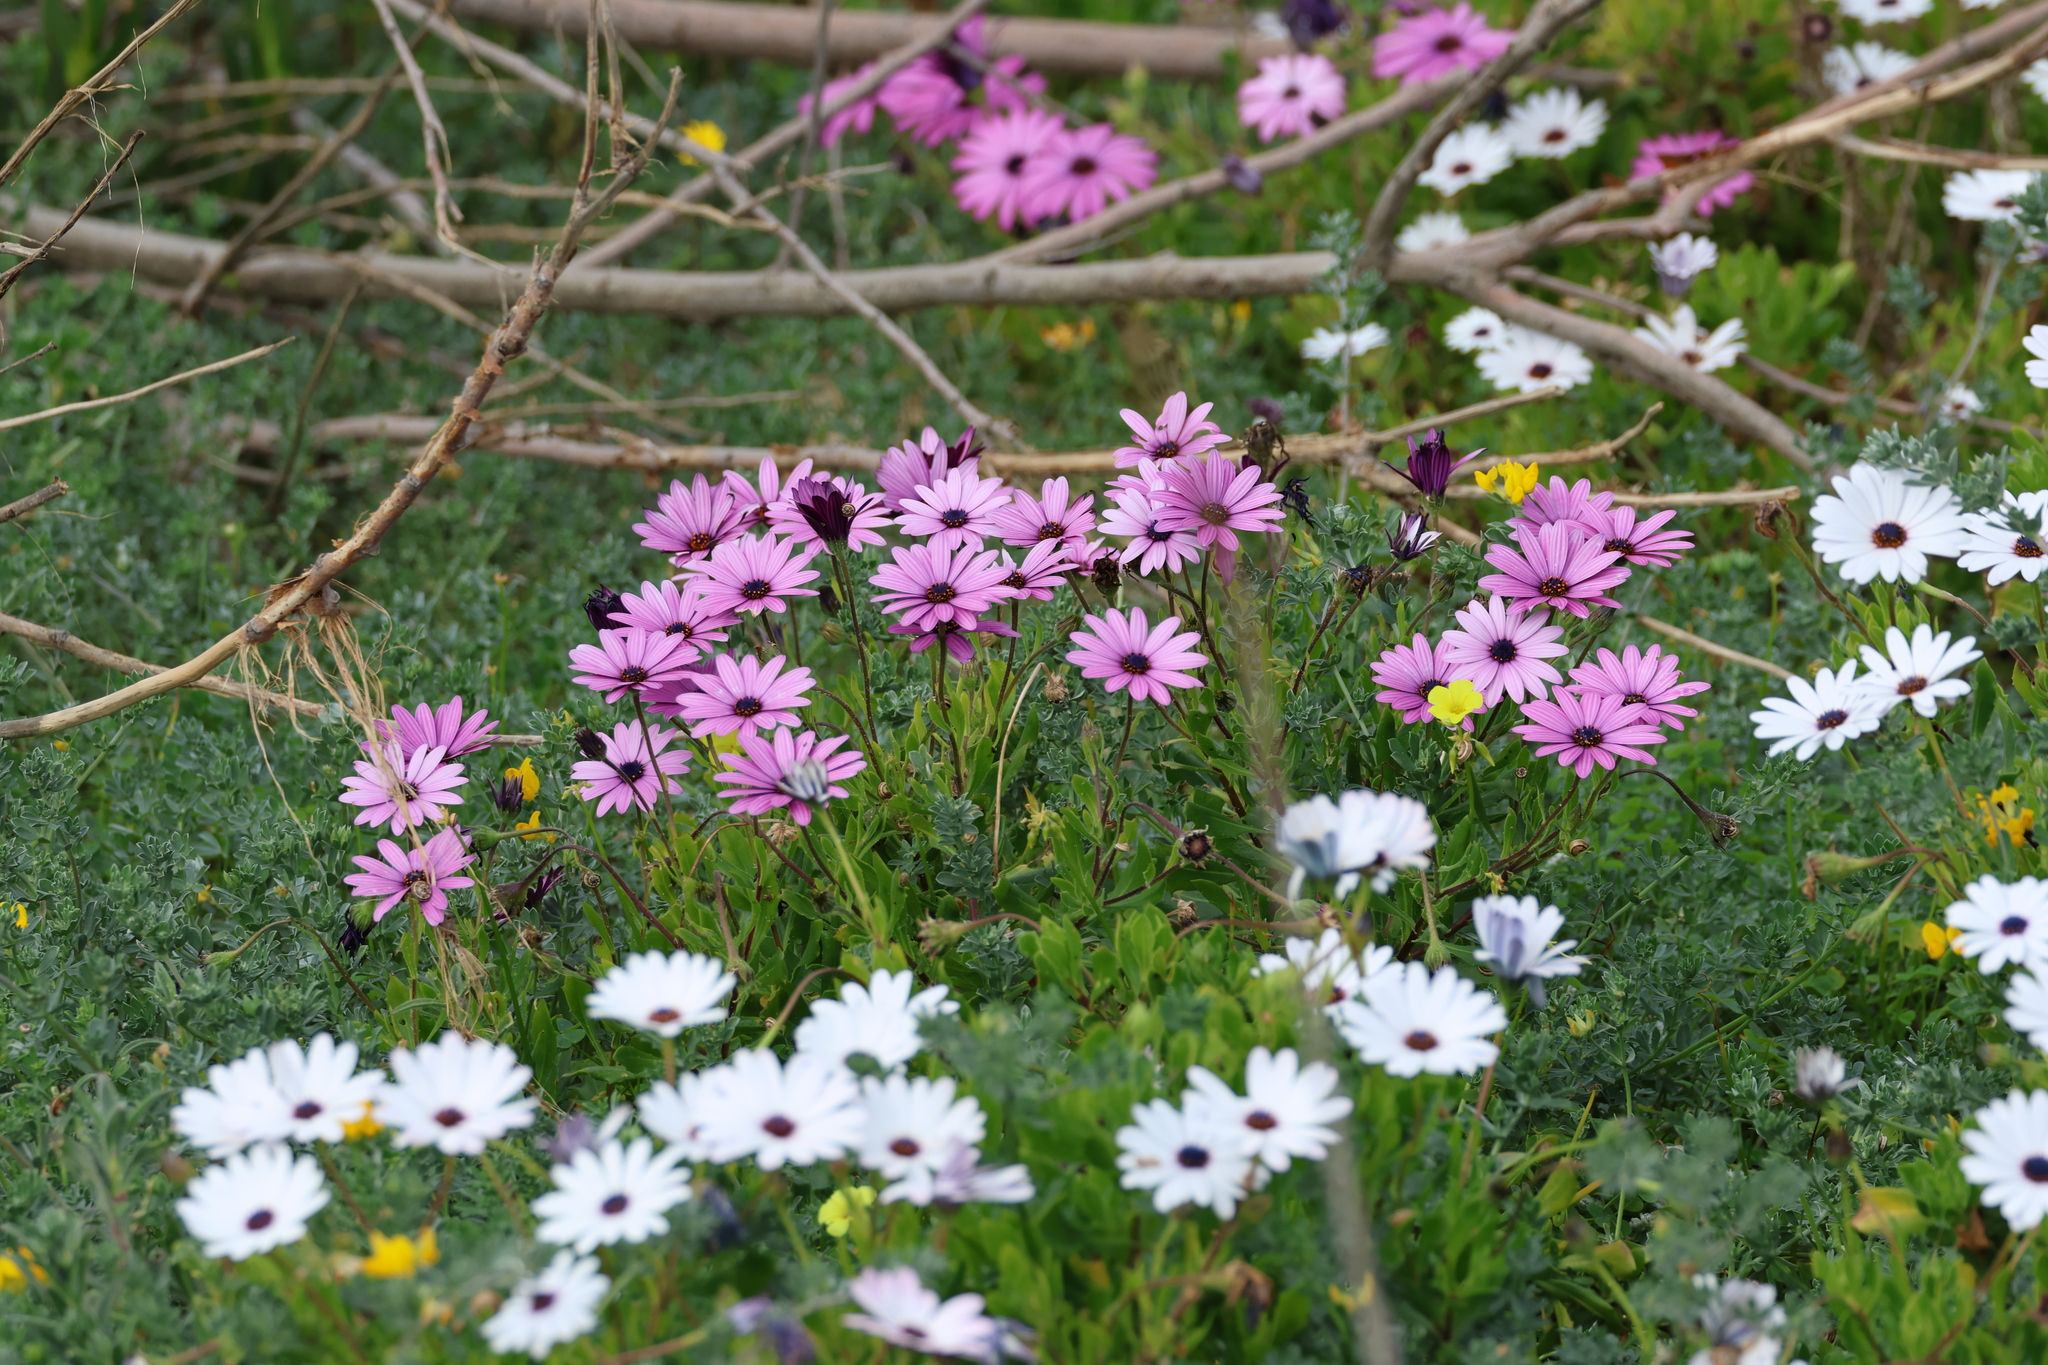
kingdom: Plantae
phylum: Tracheophyta
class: Magnoliopsida
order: Asterales
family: Asteraceae
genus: Dimorphotheca
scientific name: Dimorphotheca ecklonis
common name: Vanstaden's river daisy
